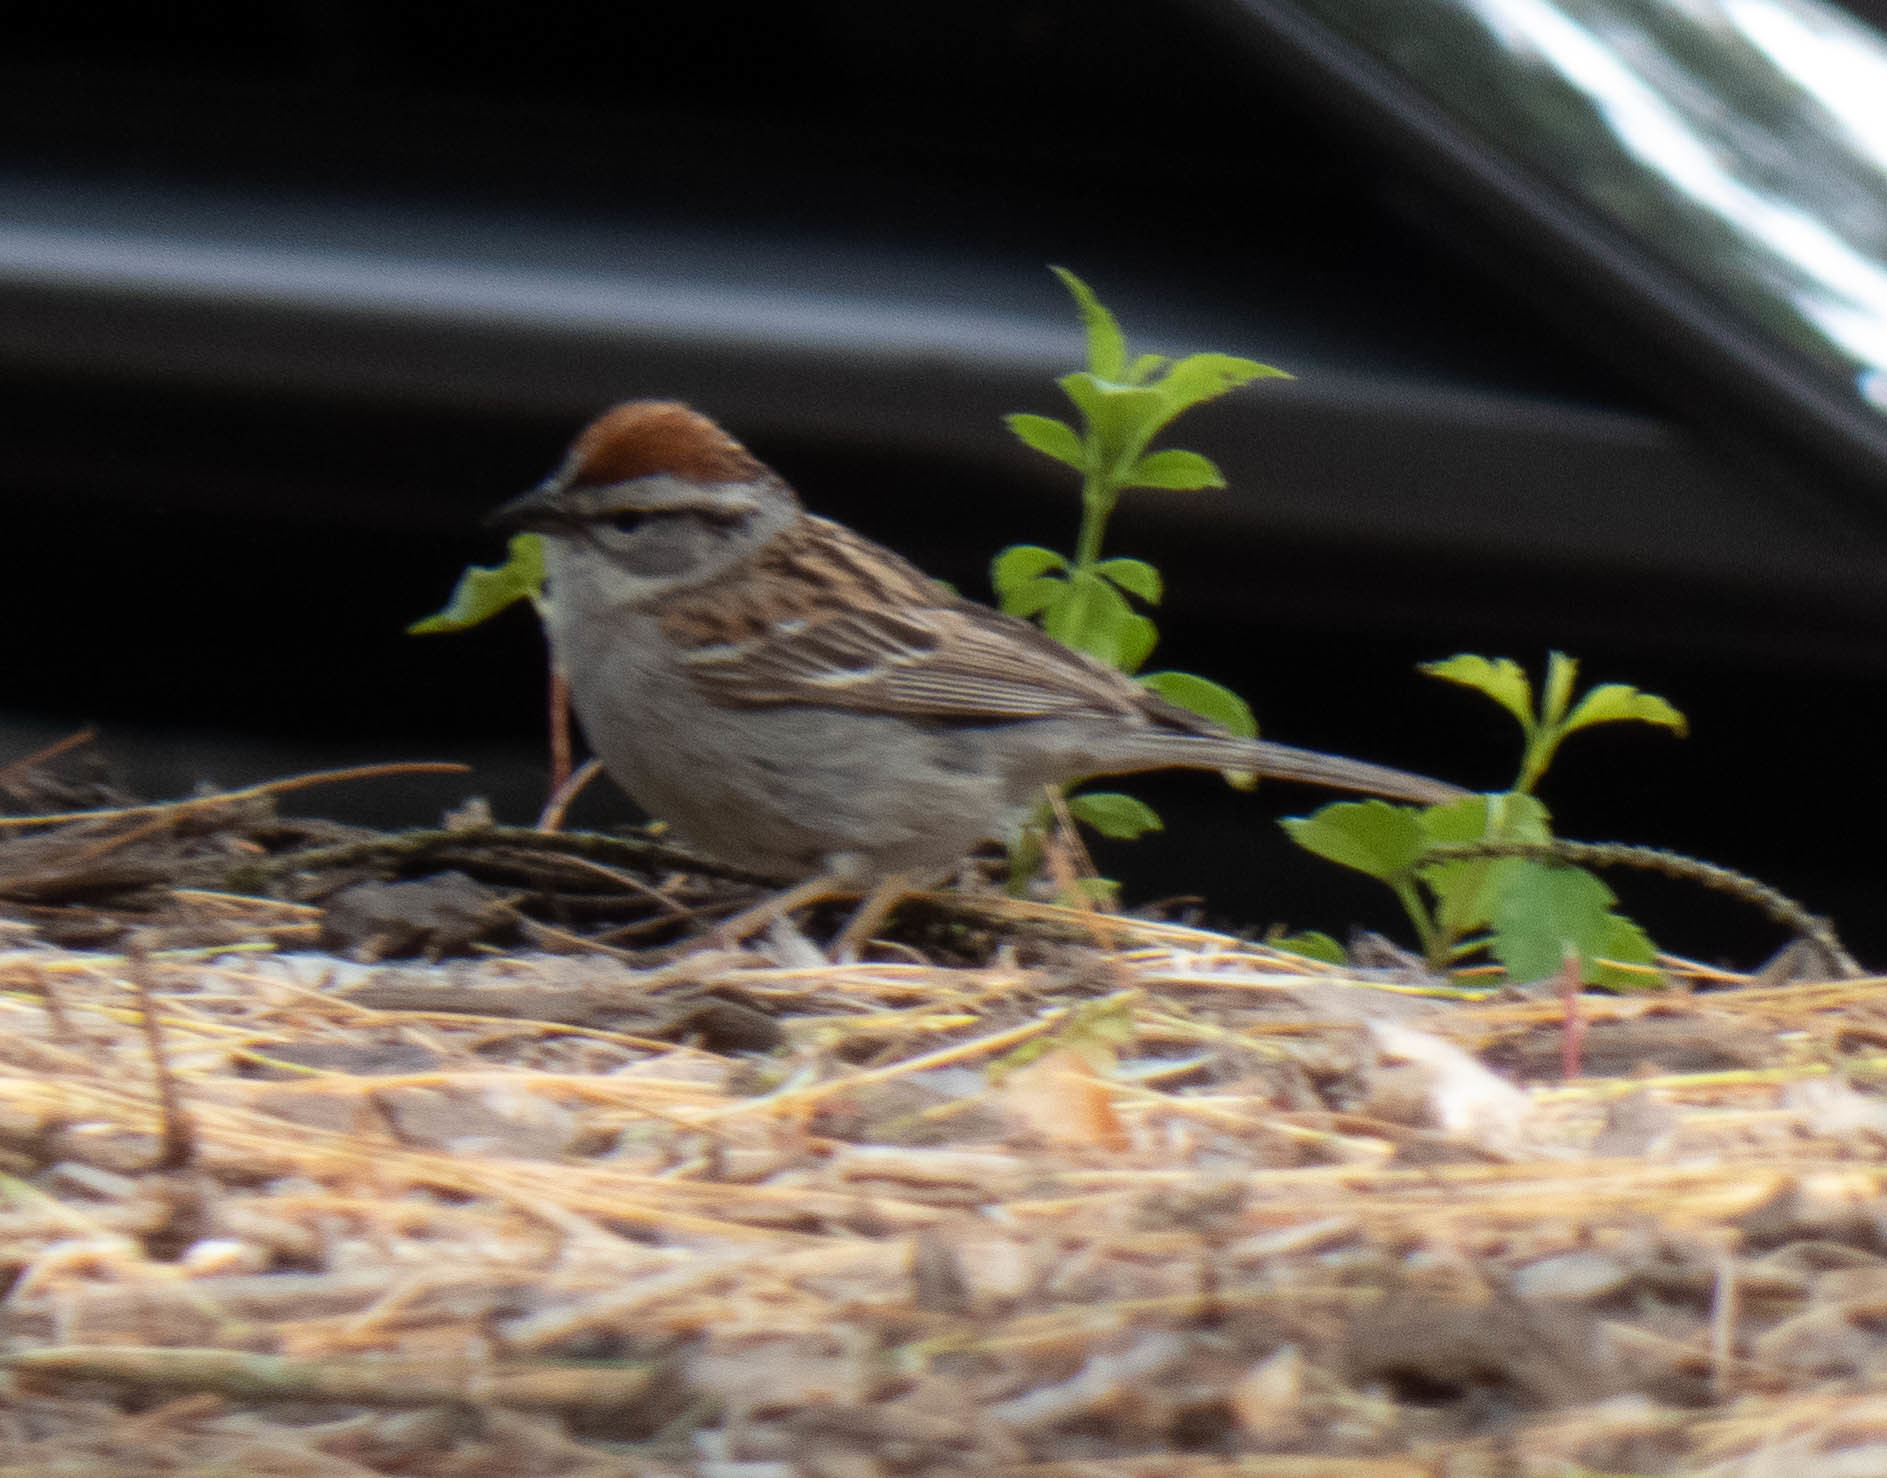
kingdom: Animalia
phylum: Chordata
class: Aves
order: Passeriformes
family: Passerellidae
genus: Spizella
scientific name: Spizella passerina
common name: Chipping sparrow
